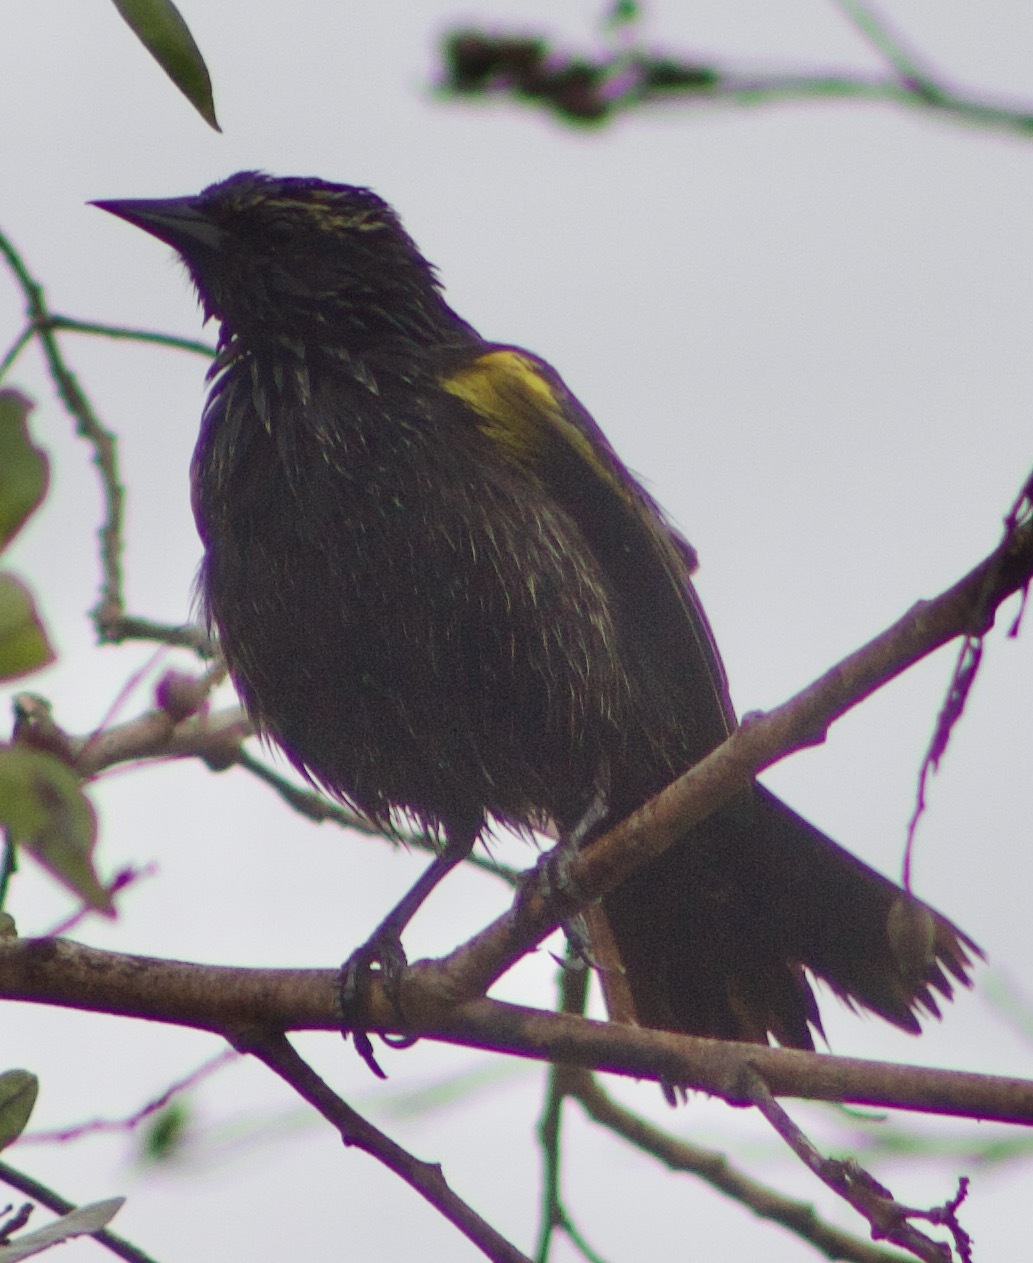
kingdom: Animalia
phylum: Chordata
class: Aves
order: Passeriformes
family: Icteridae
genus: Agelasticus
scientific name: Agelasticus thilius
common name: Yellow-winged blackbird
